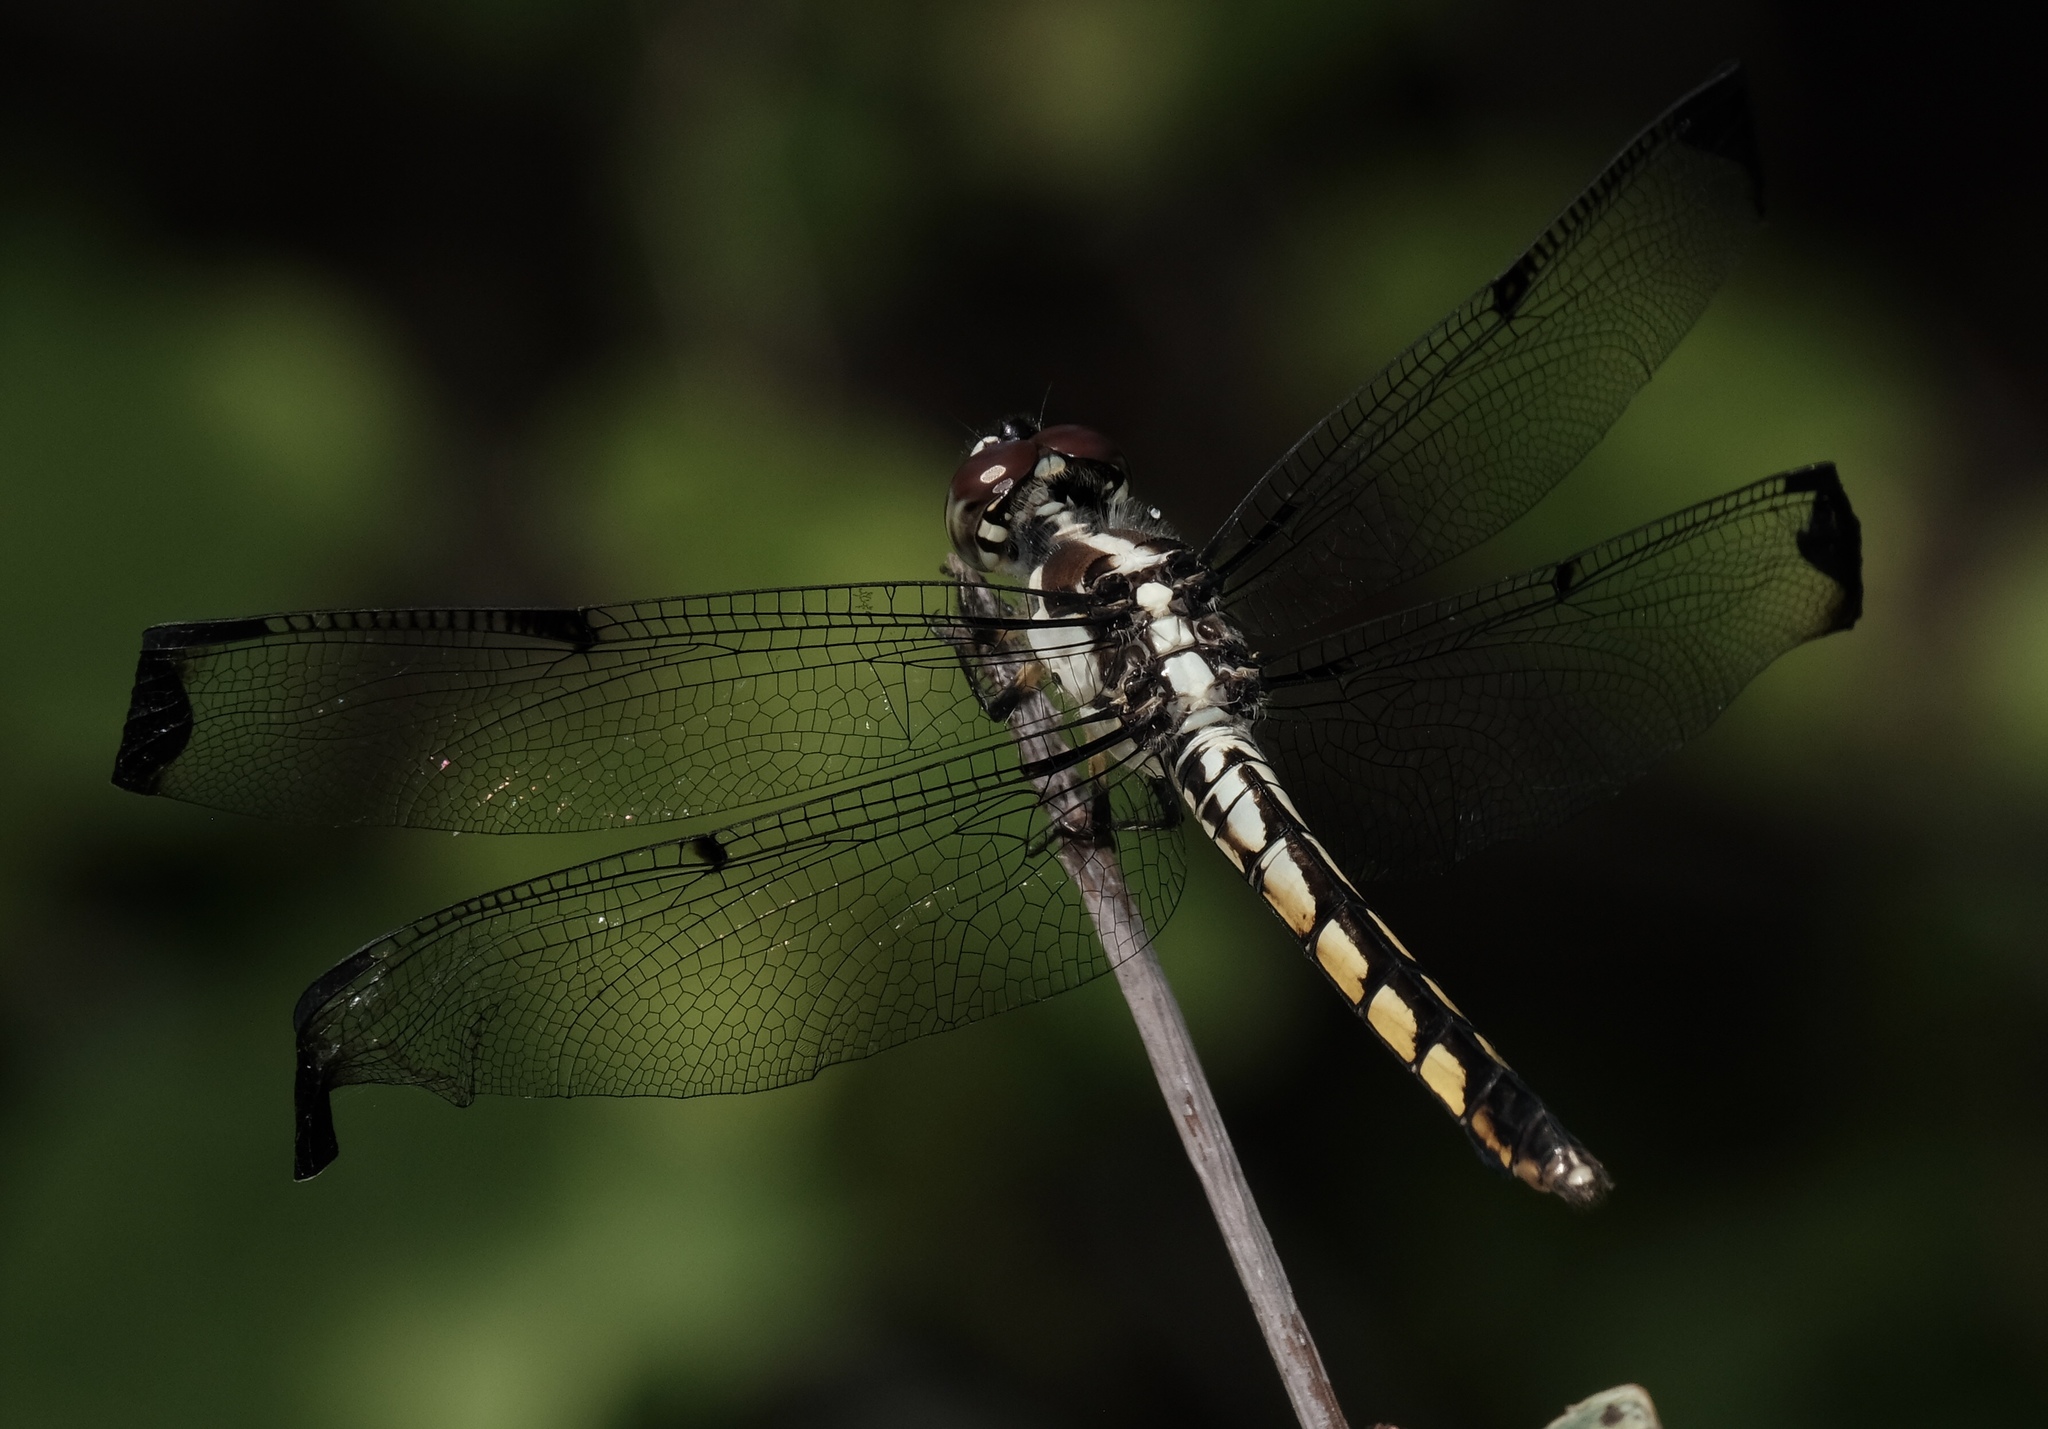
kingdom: Animalia
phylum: Arthropoda
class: Insecta
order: Odonata
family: Libellulidae
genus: Libellula
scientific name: Libellula vibrans
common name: Great blue skimmer
